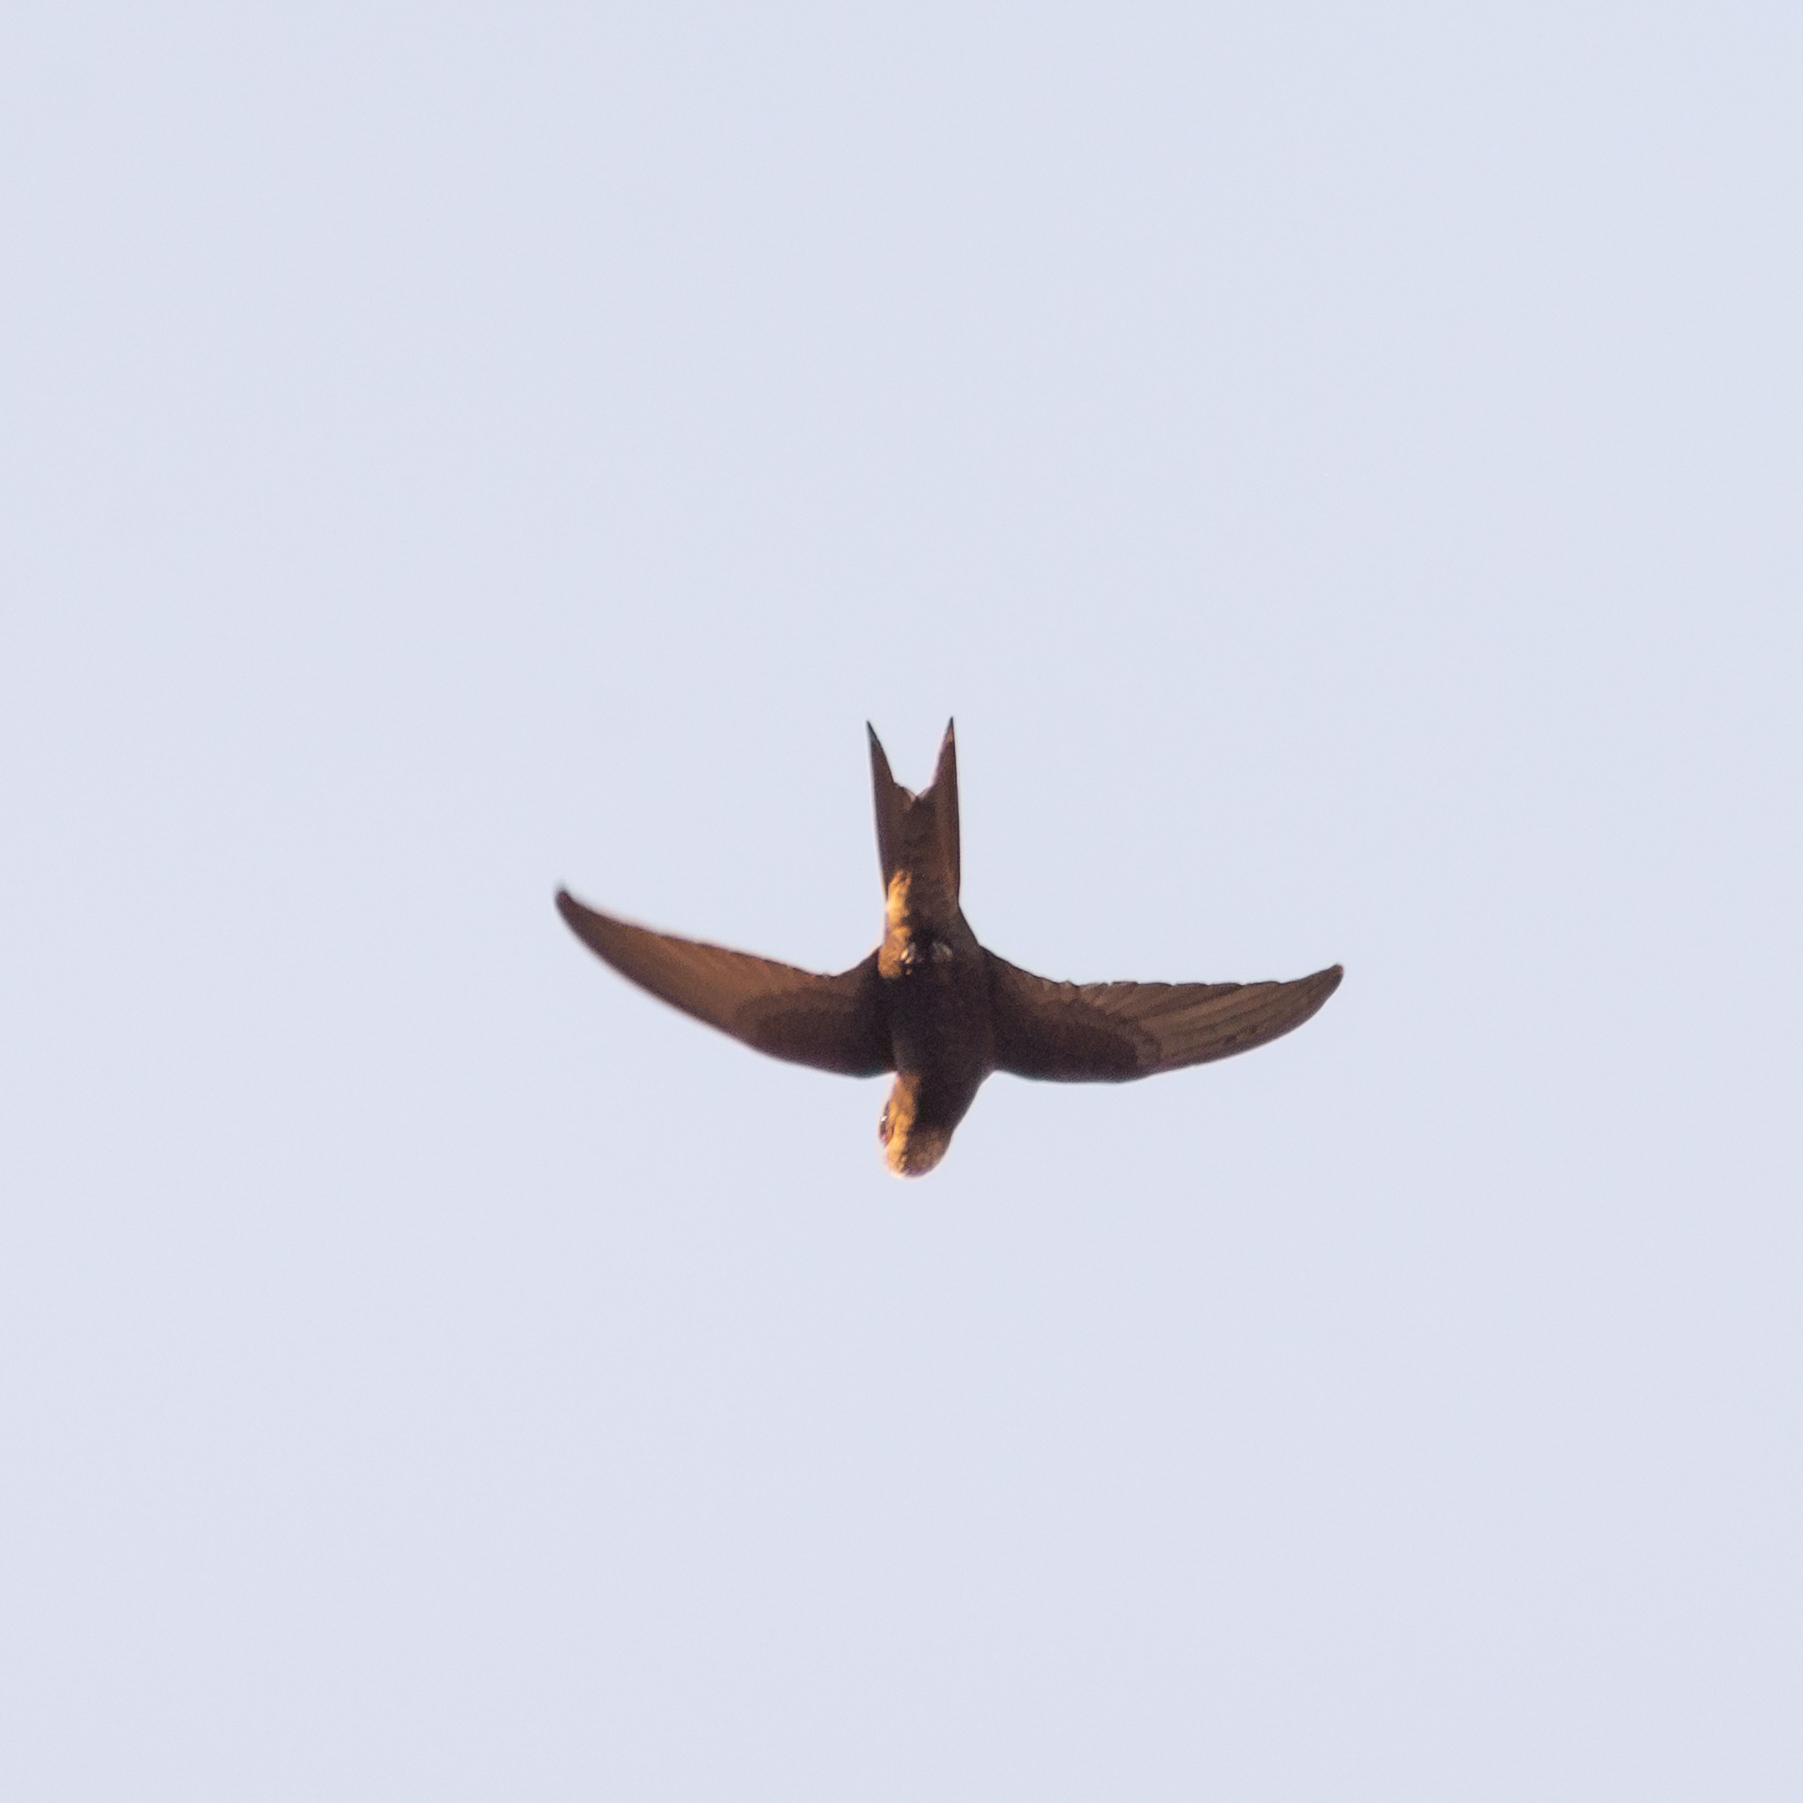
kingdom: Animalia
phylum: Chordata
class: Aves
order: Apodiformes
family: Apodidae
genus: Apus
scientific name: Apus apus
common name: Common swift
